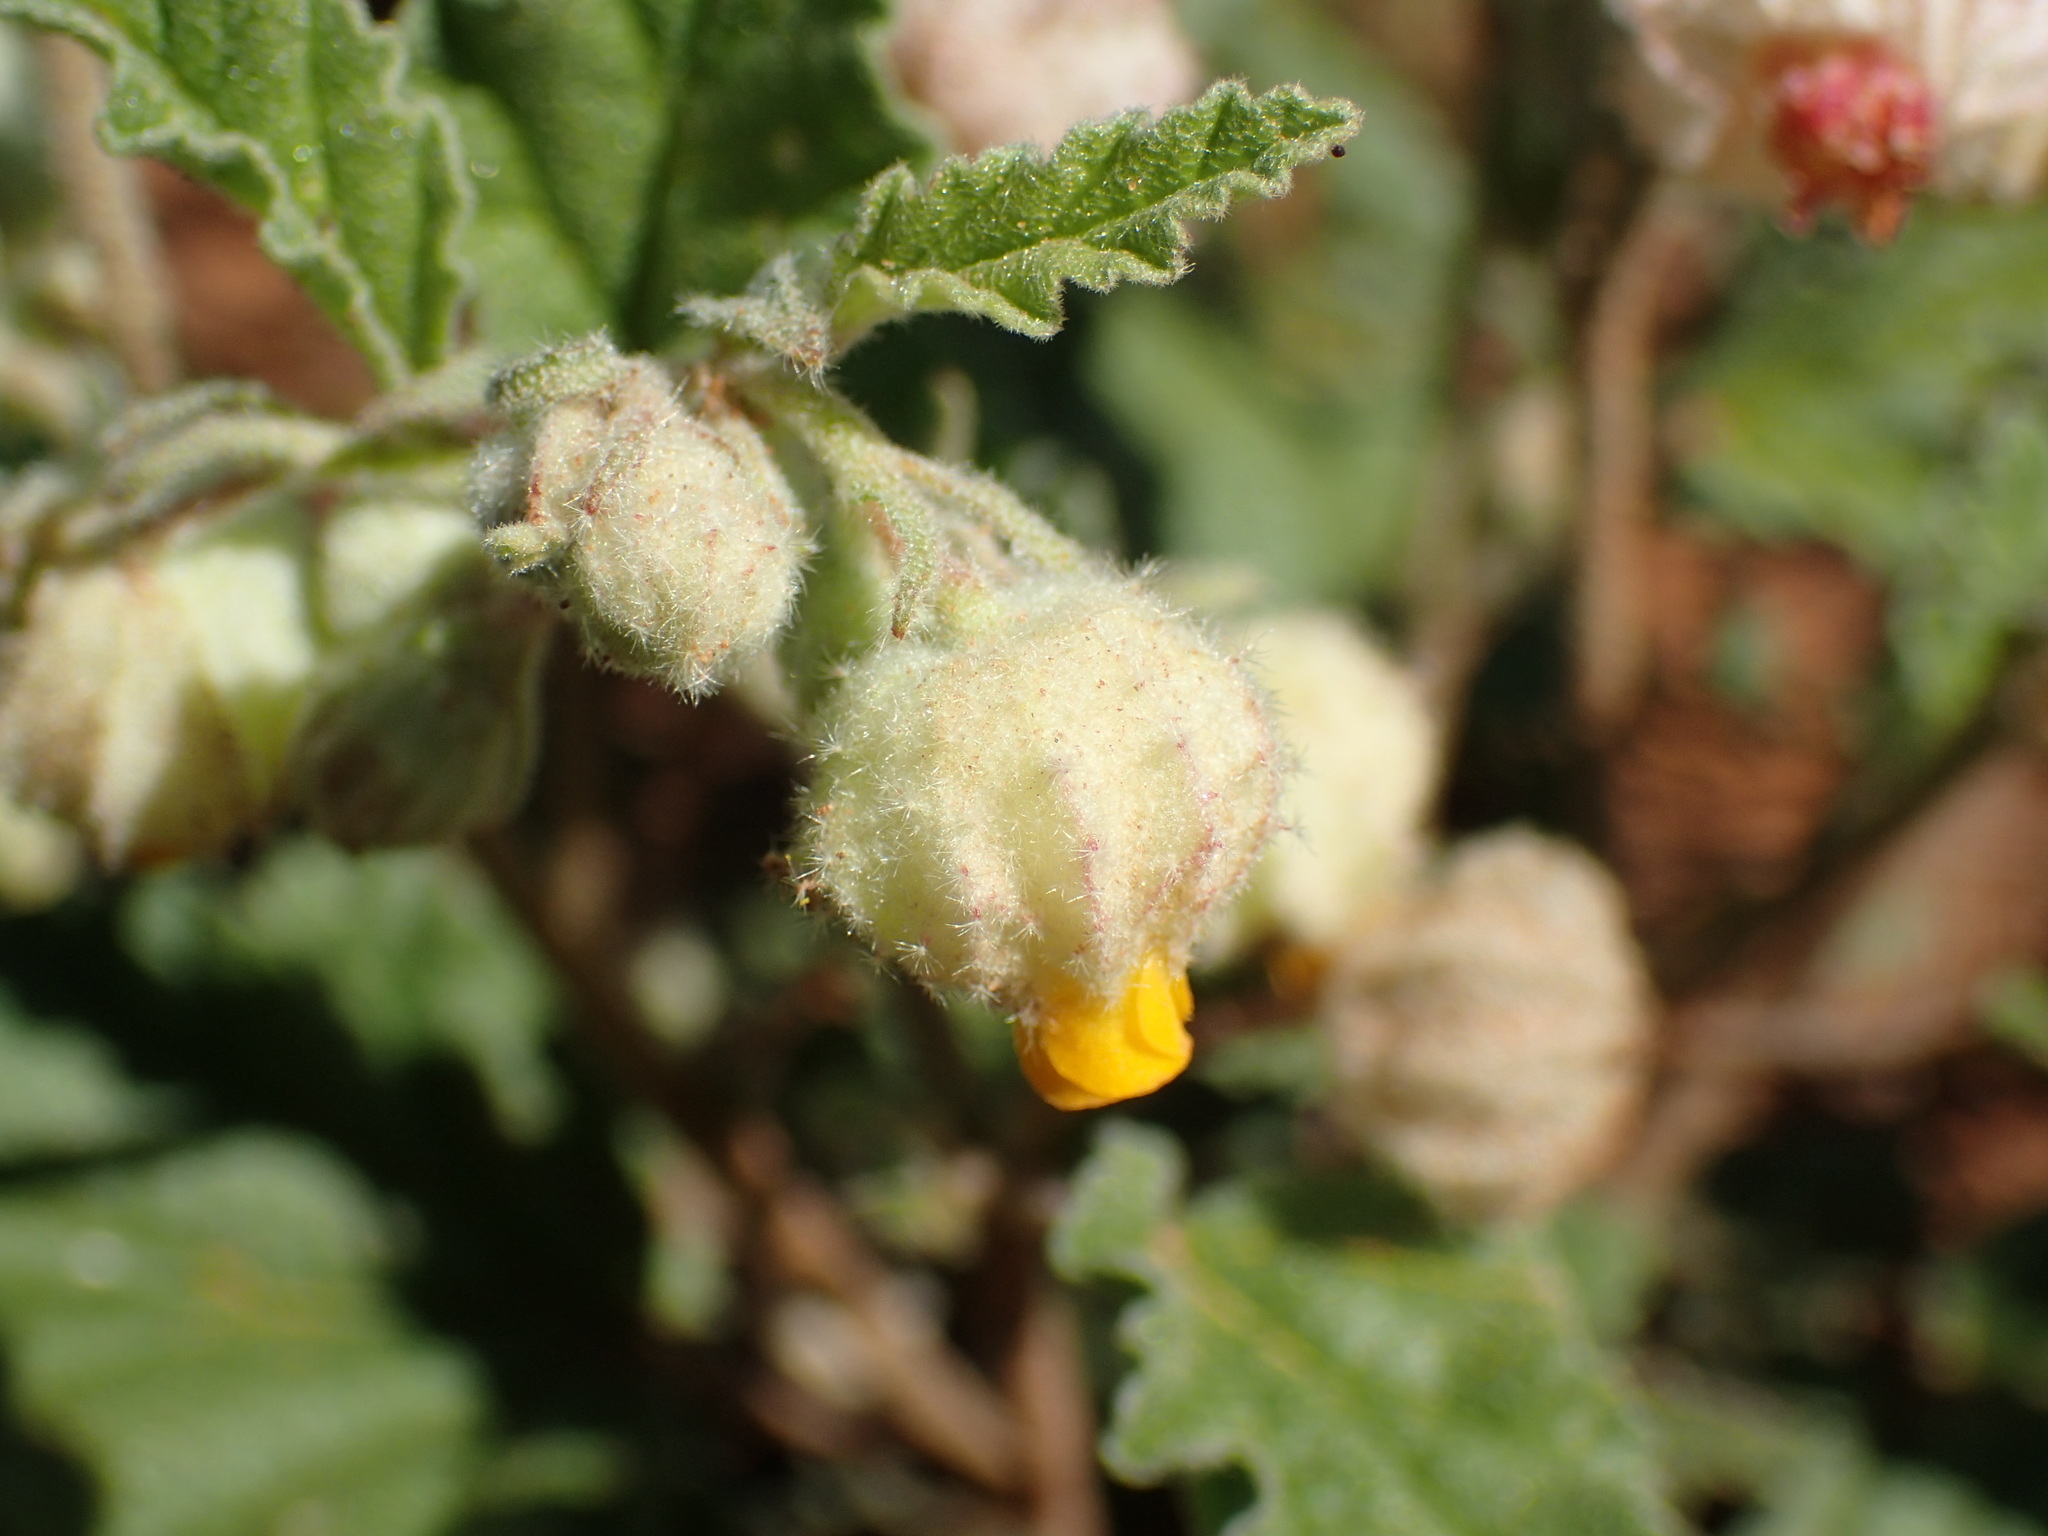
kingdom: Plantae
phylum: Tracheophyta
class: Magnoliopsida
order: Malvales
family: Malvaceae
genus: Hermannia
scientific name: Hermannia comosa
